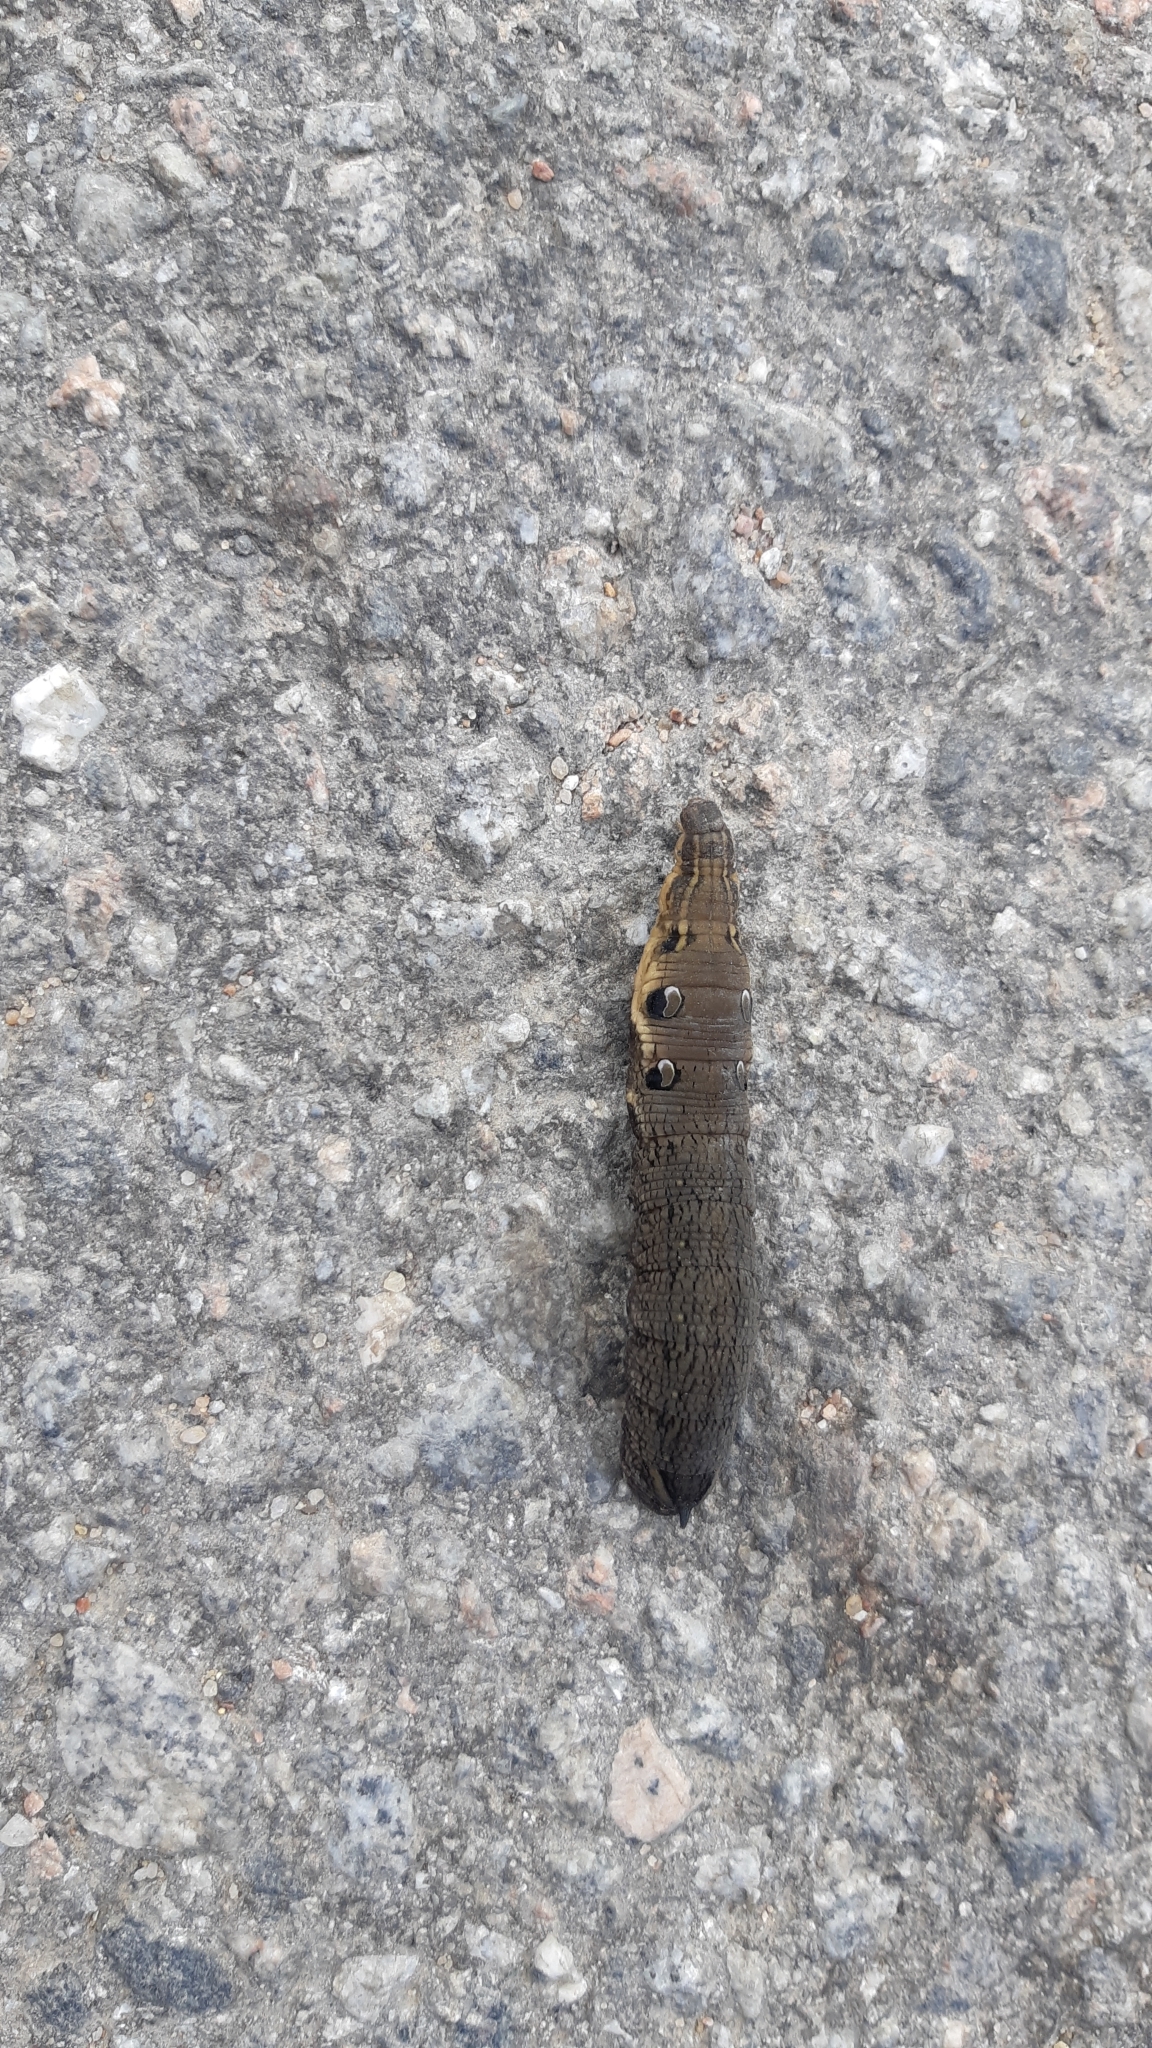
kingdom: Animalia
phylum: Arthropoda
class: Insecta
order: Lepidoptera
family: Sphingidae
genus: Deilephila
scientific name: Deilephila elpenor
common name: Elephant hawk-moth
